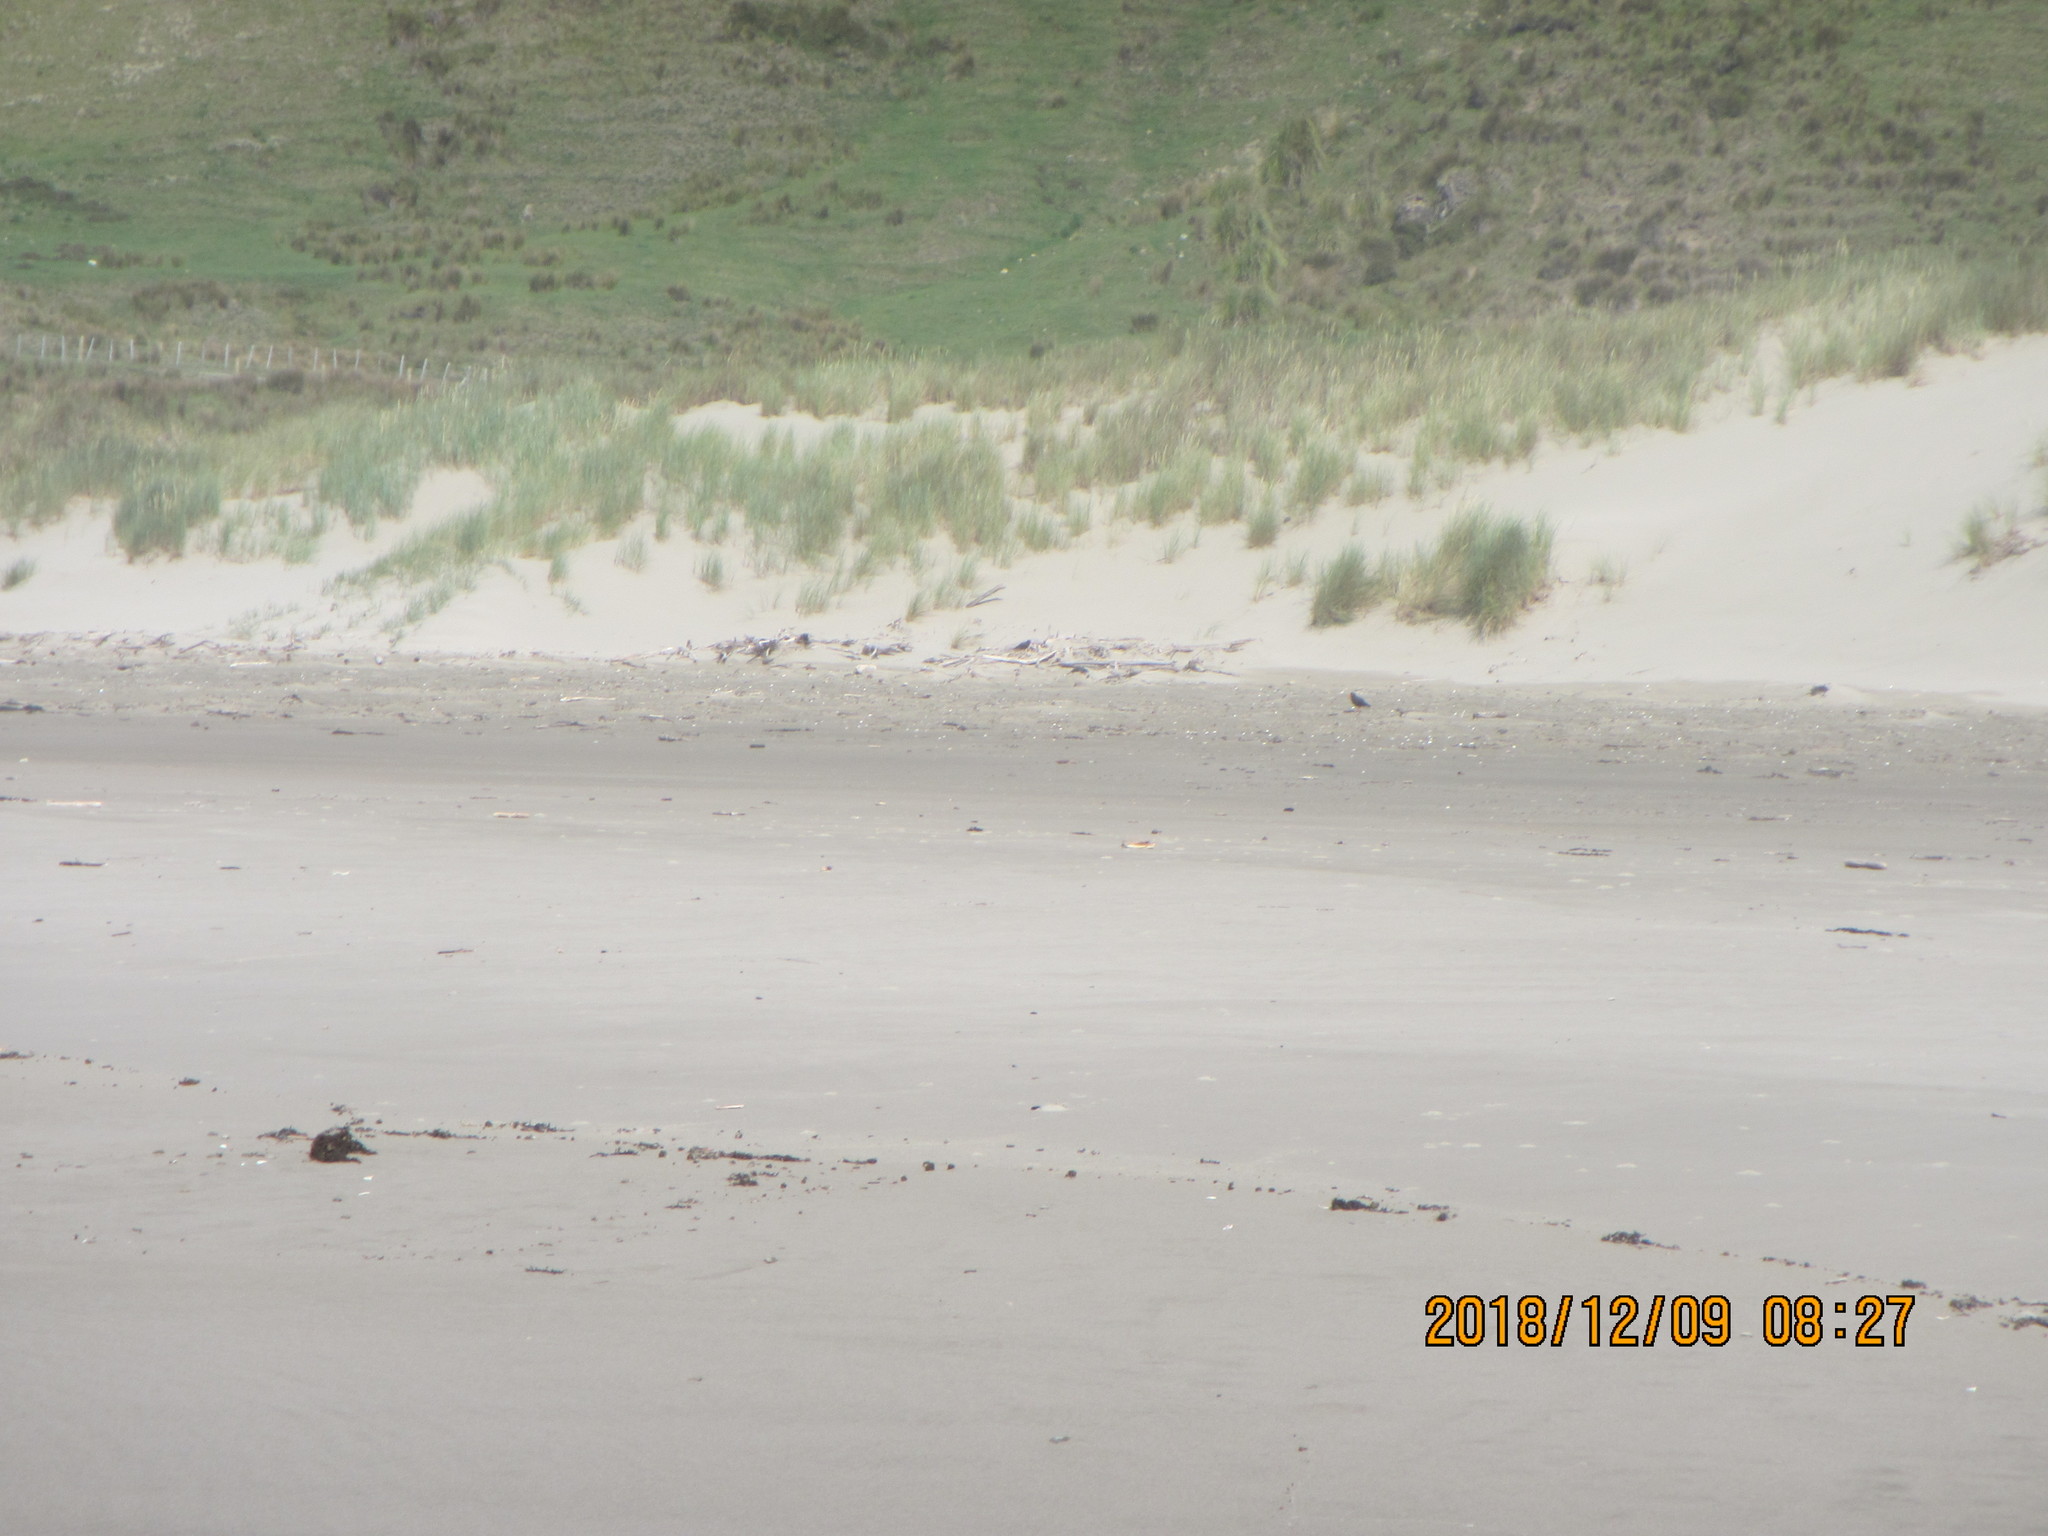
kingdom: Animalia
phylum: Chordata
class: Aves
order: Charadriiformes
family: Haematopodidae
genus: Haematopus
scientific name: Haematopus unicolor
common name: Variable oystercatcher
